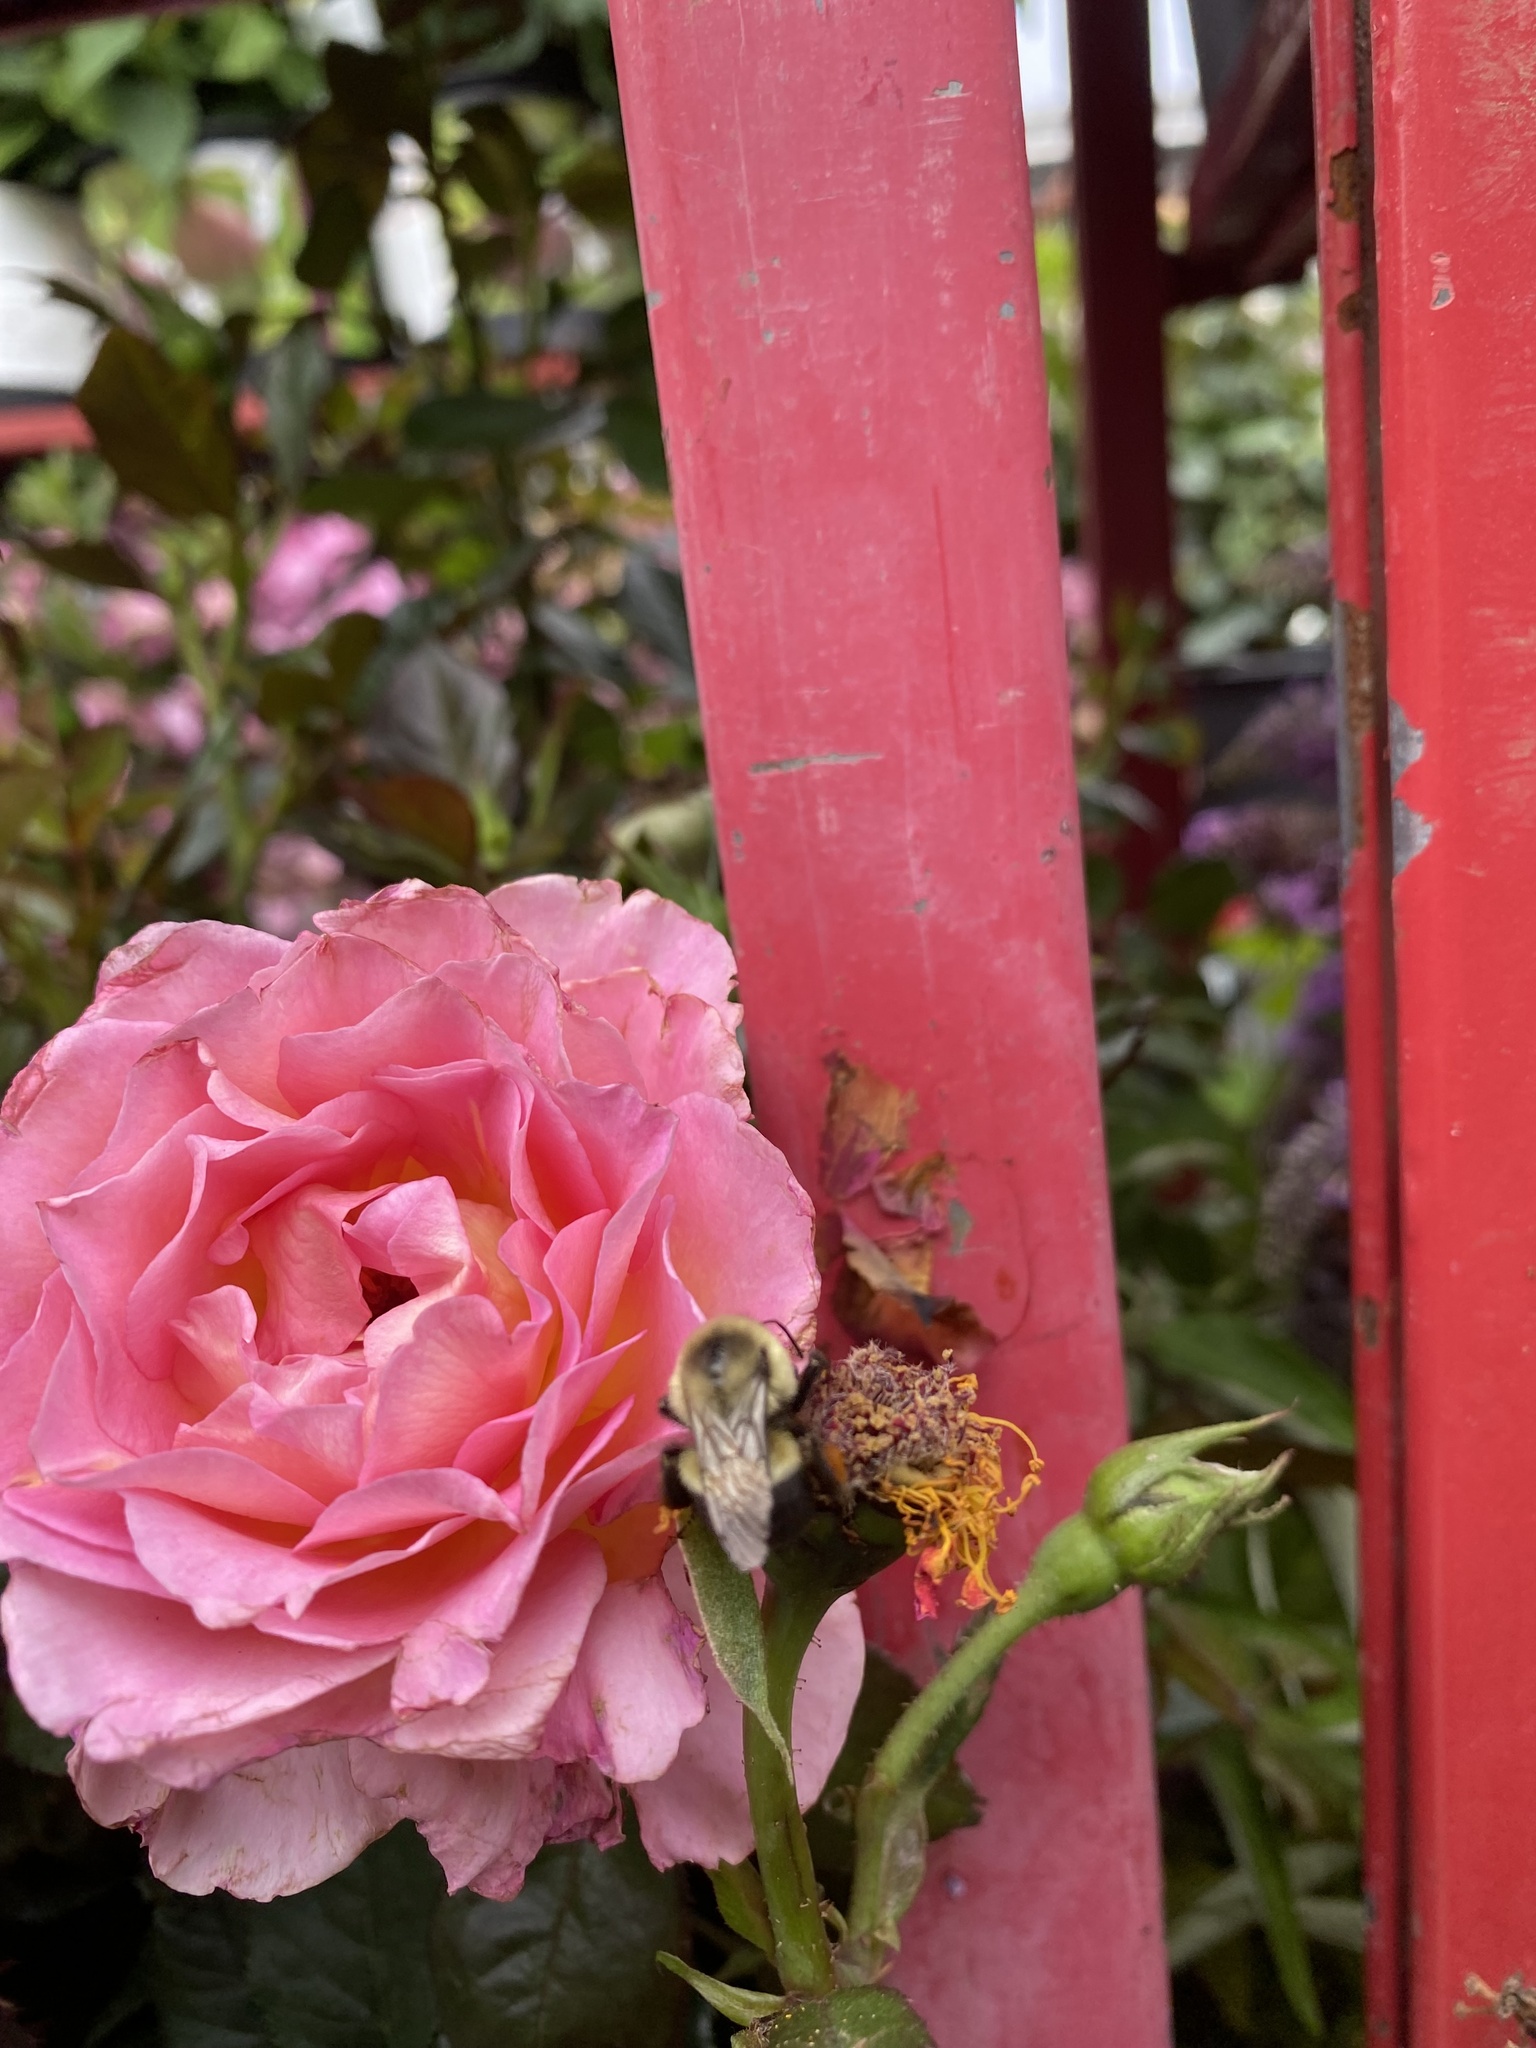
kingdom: Animalia
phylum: Arthropoda
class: Insecta
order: Hymenoptera
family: Apidae
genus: Bombus
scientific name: Bombus impatiens
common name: Common eastern bumble bee
